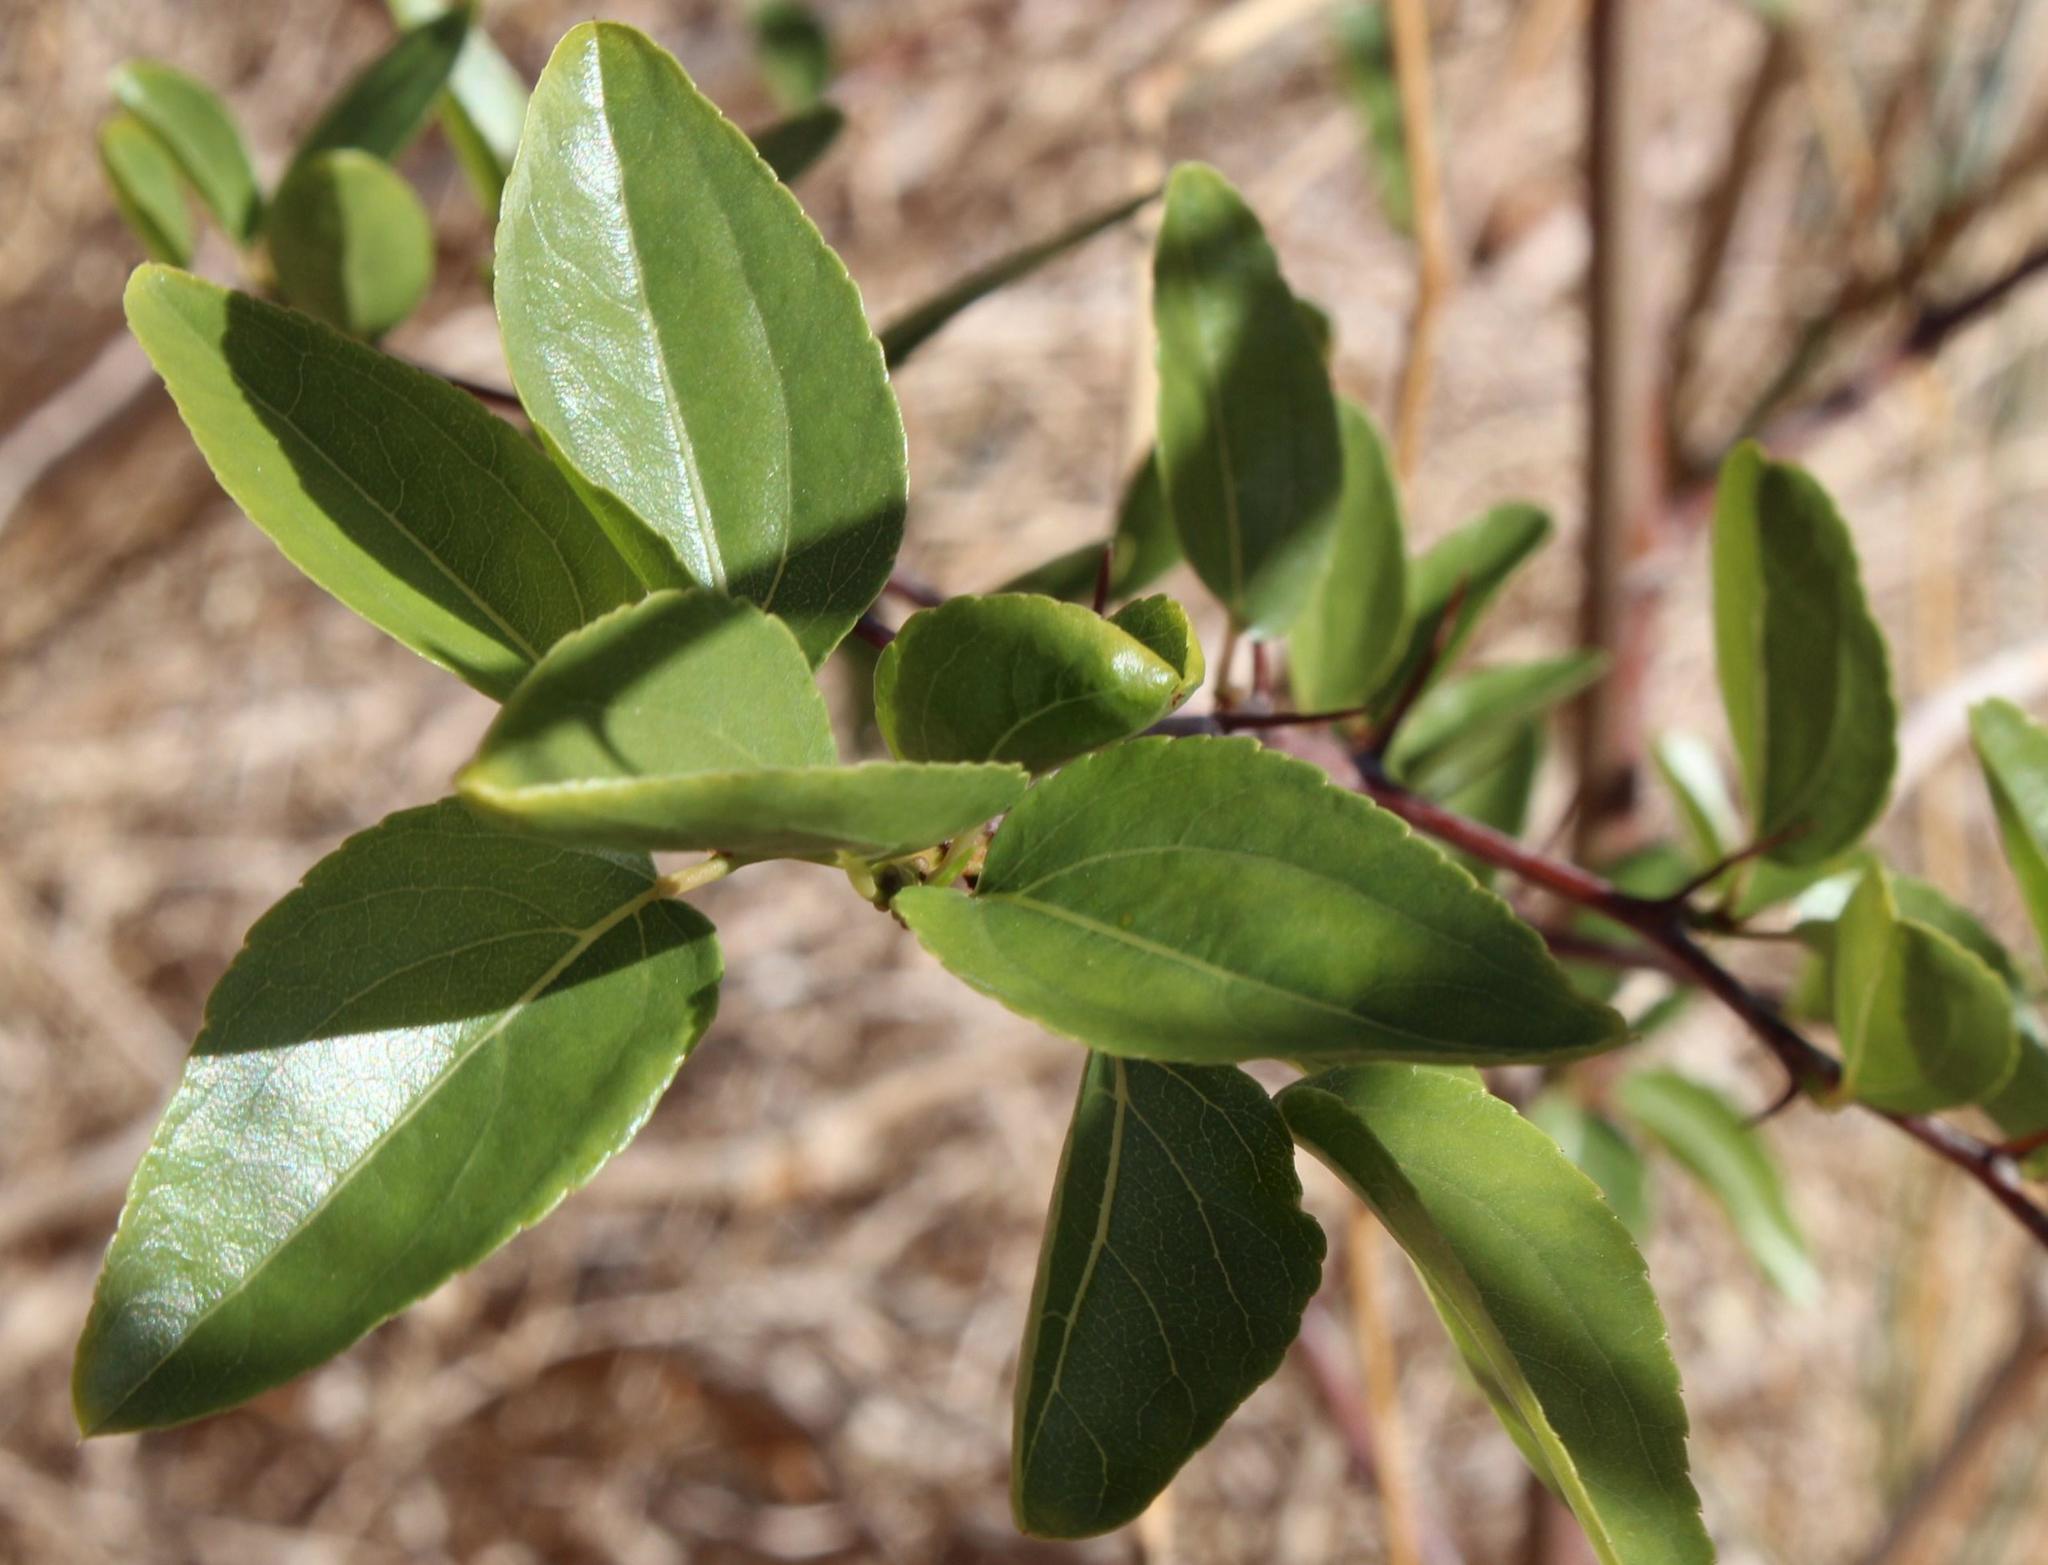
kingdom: Plantae
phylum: Tracheophyta
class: Magnoliopsida
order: Rosales
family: Rhamnaceae
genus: Ziziphus
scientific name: Ziziphus mucronata
